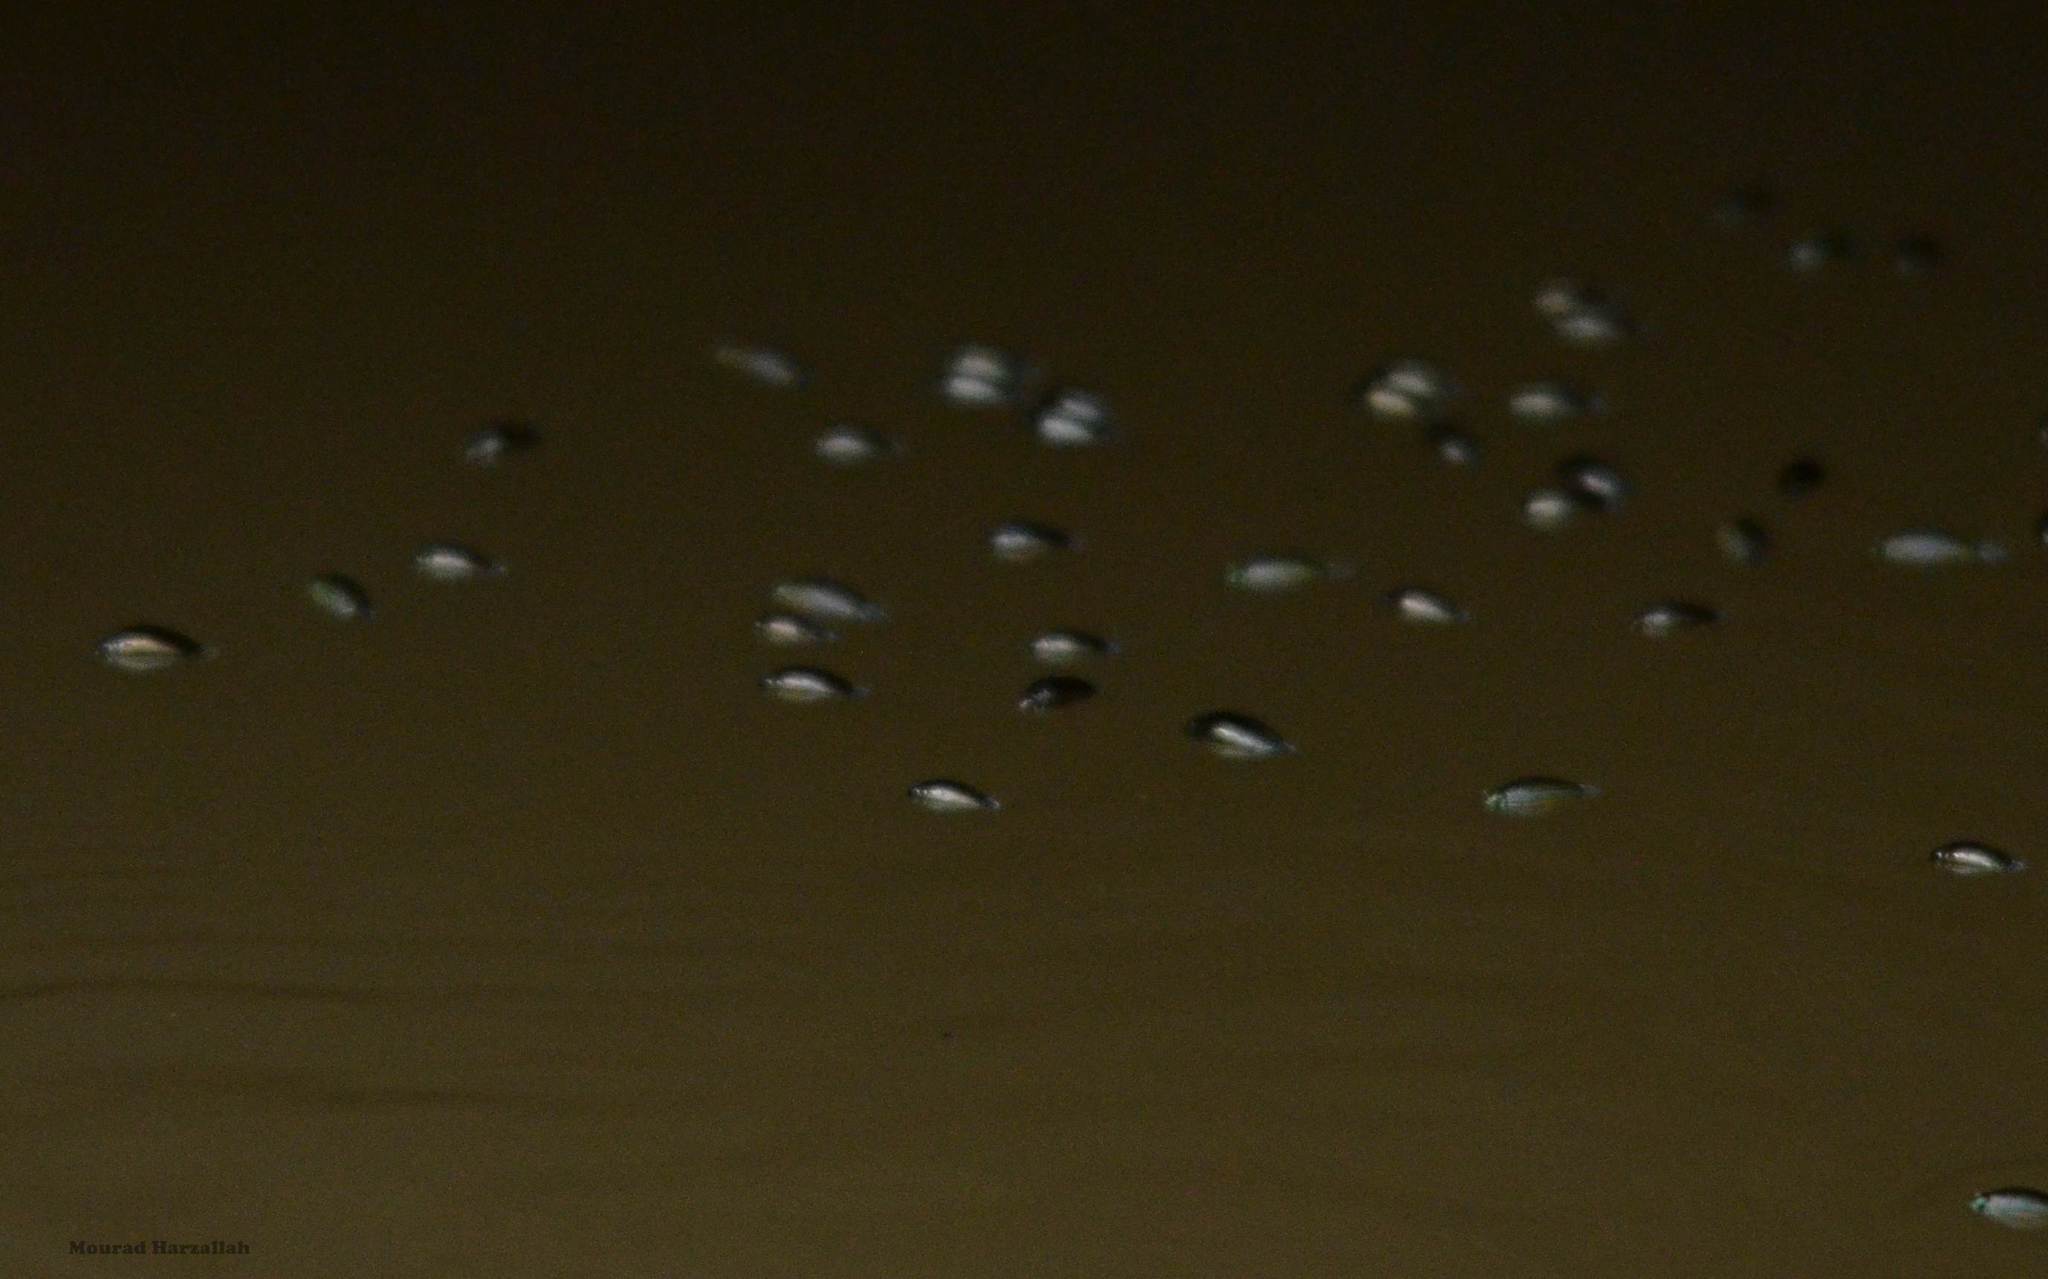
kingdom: Animalia
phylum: Arthropoda
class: Insecta
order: Coleoptera
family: Gyrinidae
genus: Gyrinus
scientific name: Gyrinus
